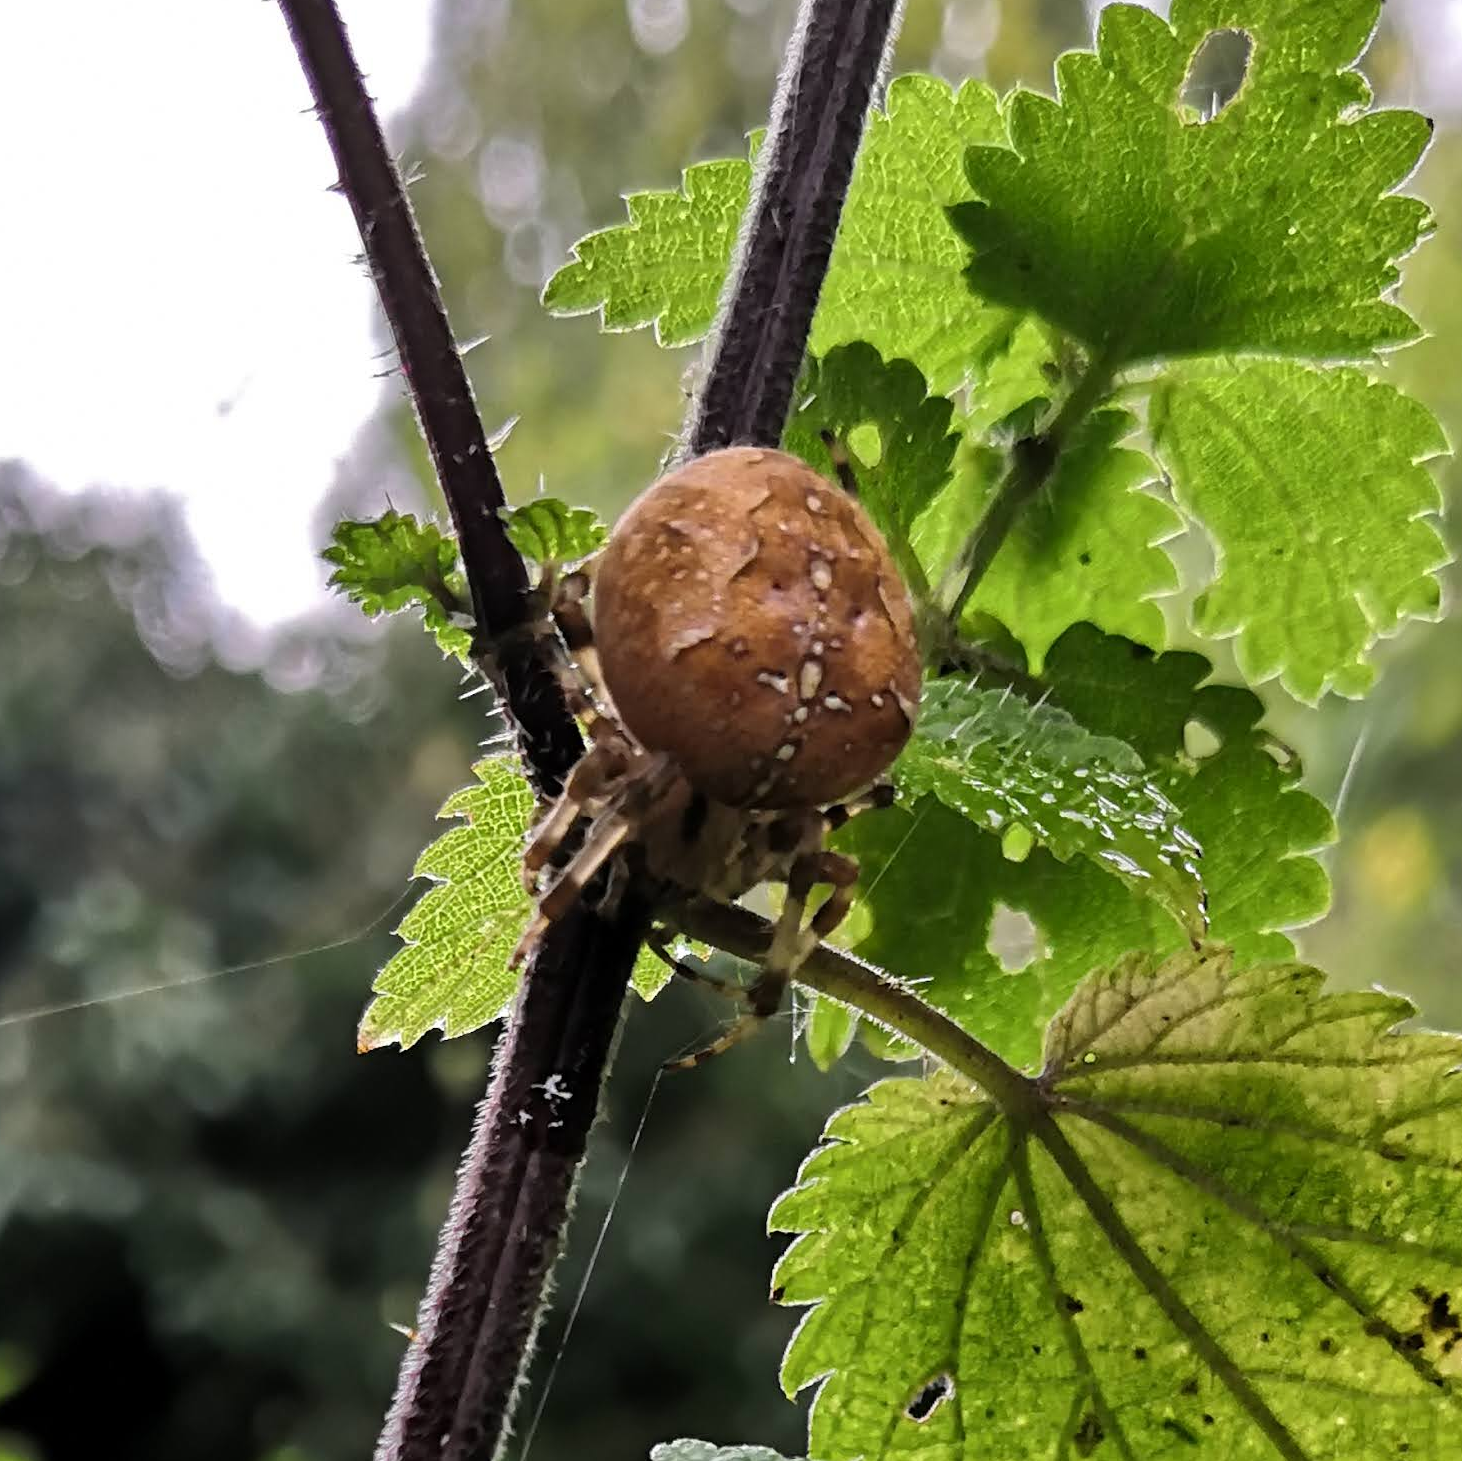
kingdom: Animalia
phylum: Arthropoda
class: Arachnida
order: Araneae
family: Araneidae
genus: Araneus
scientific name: Araneus diadematus
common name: Cross orbweaver
